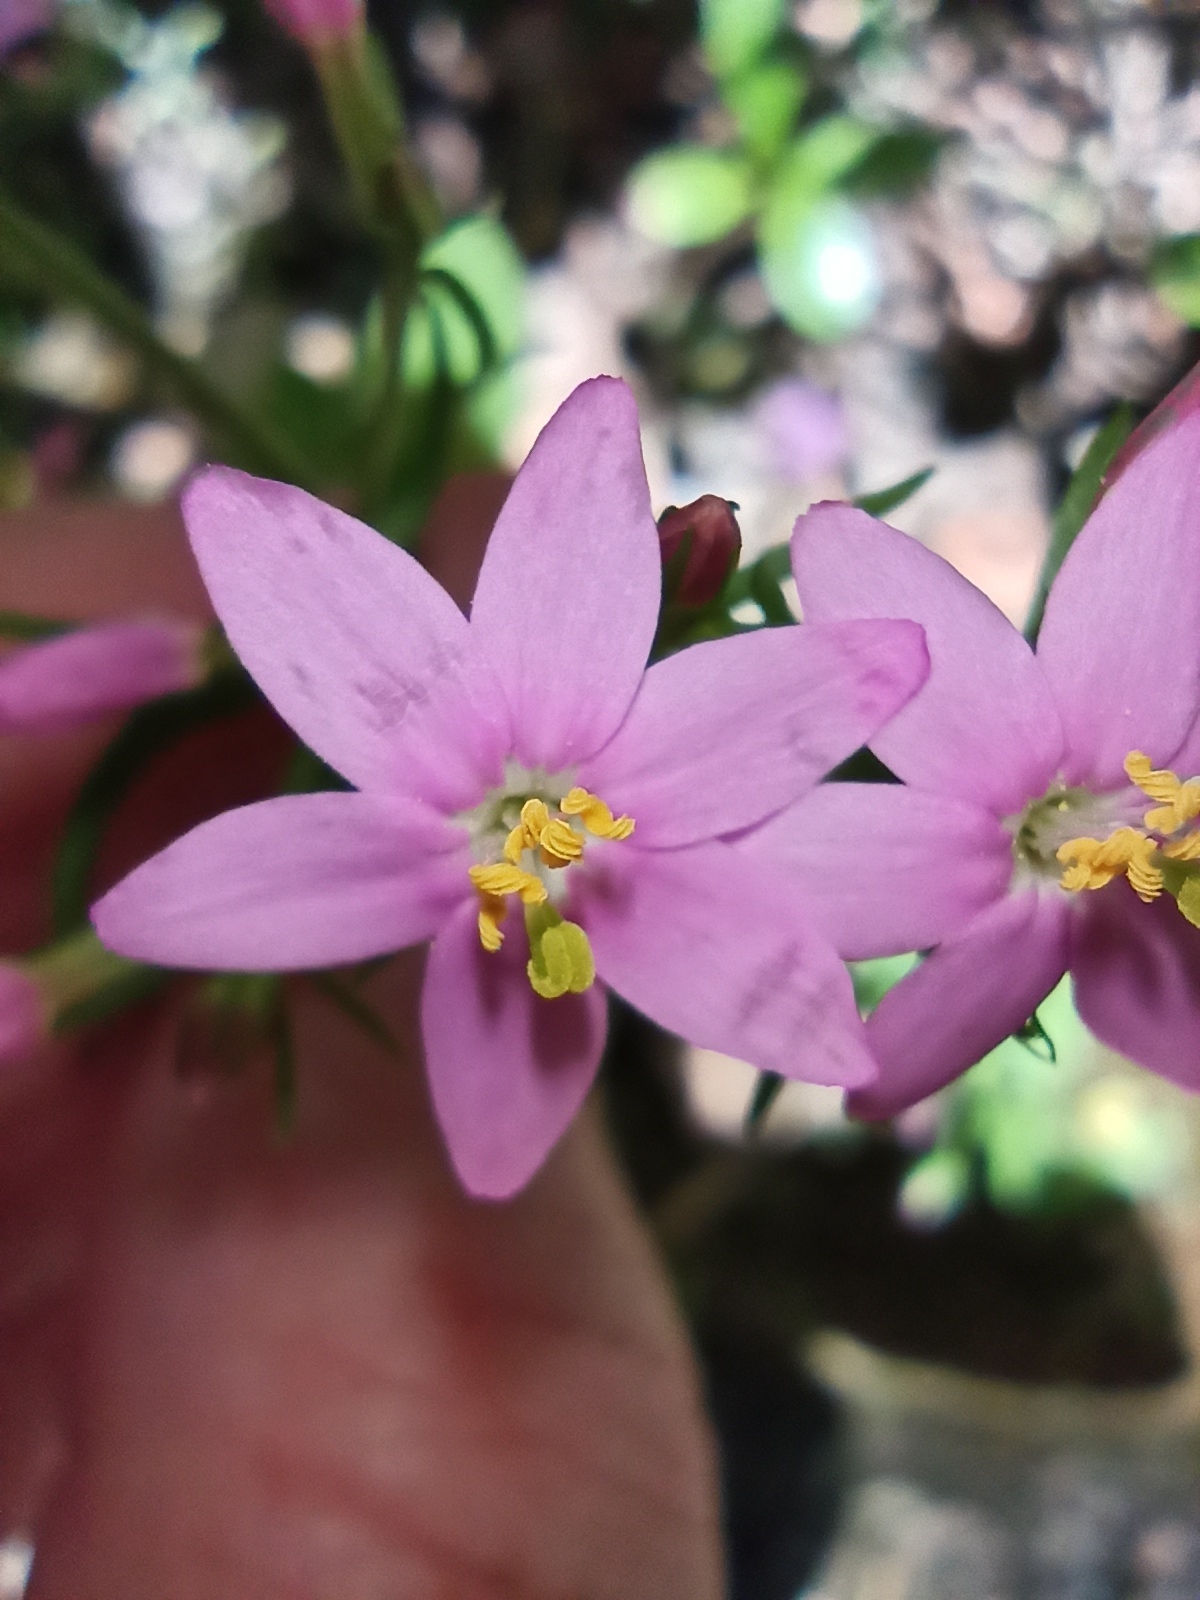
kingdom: Plantae
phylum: Tracheophyta
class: Magnoliopsida
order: Gentianales
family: Gentianaceae
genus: Centaurium
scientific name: Centaurium erythraea
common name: Common centaury
